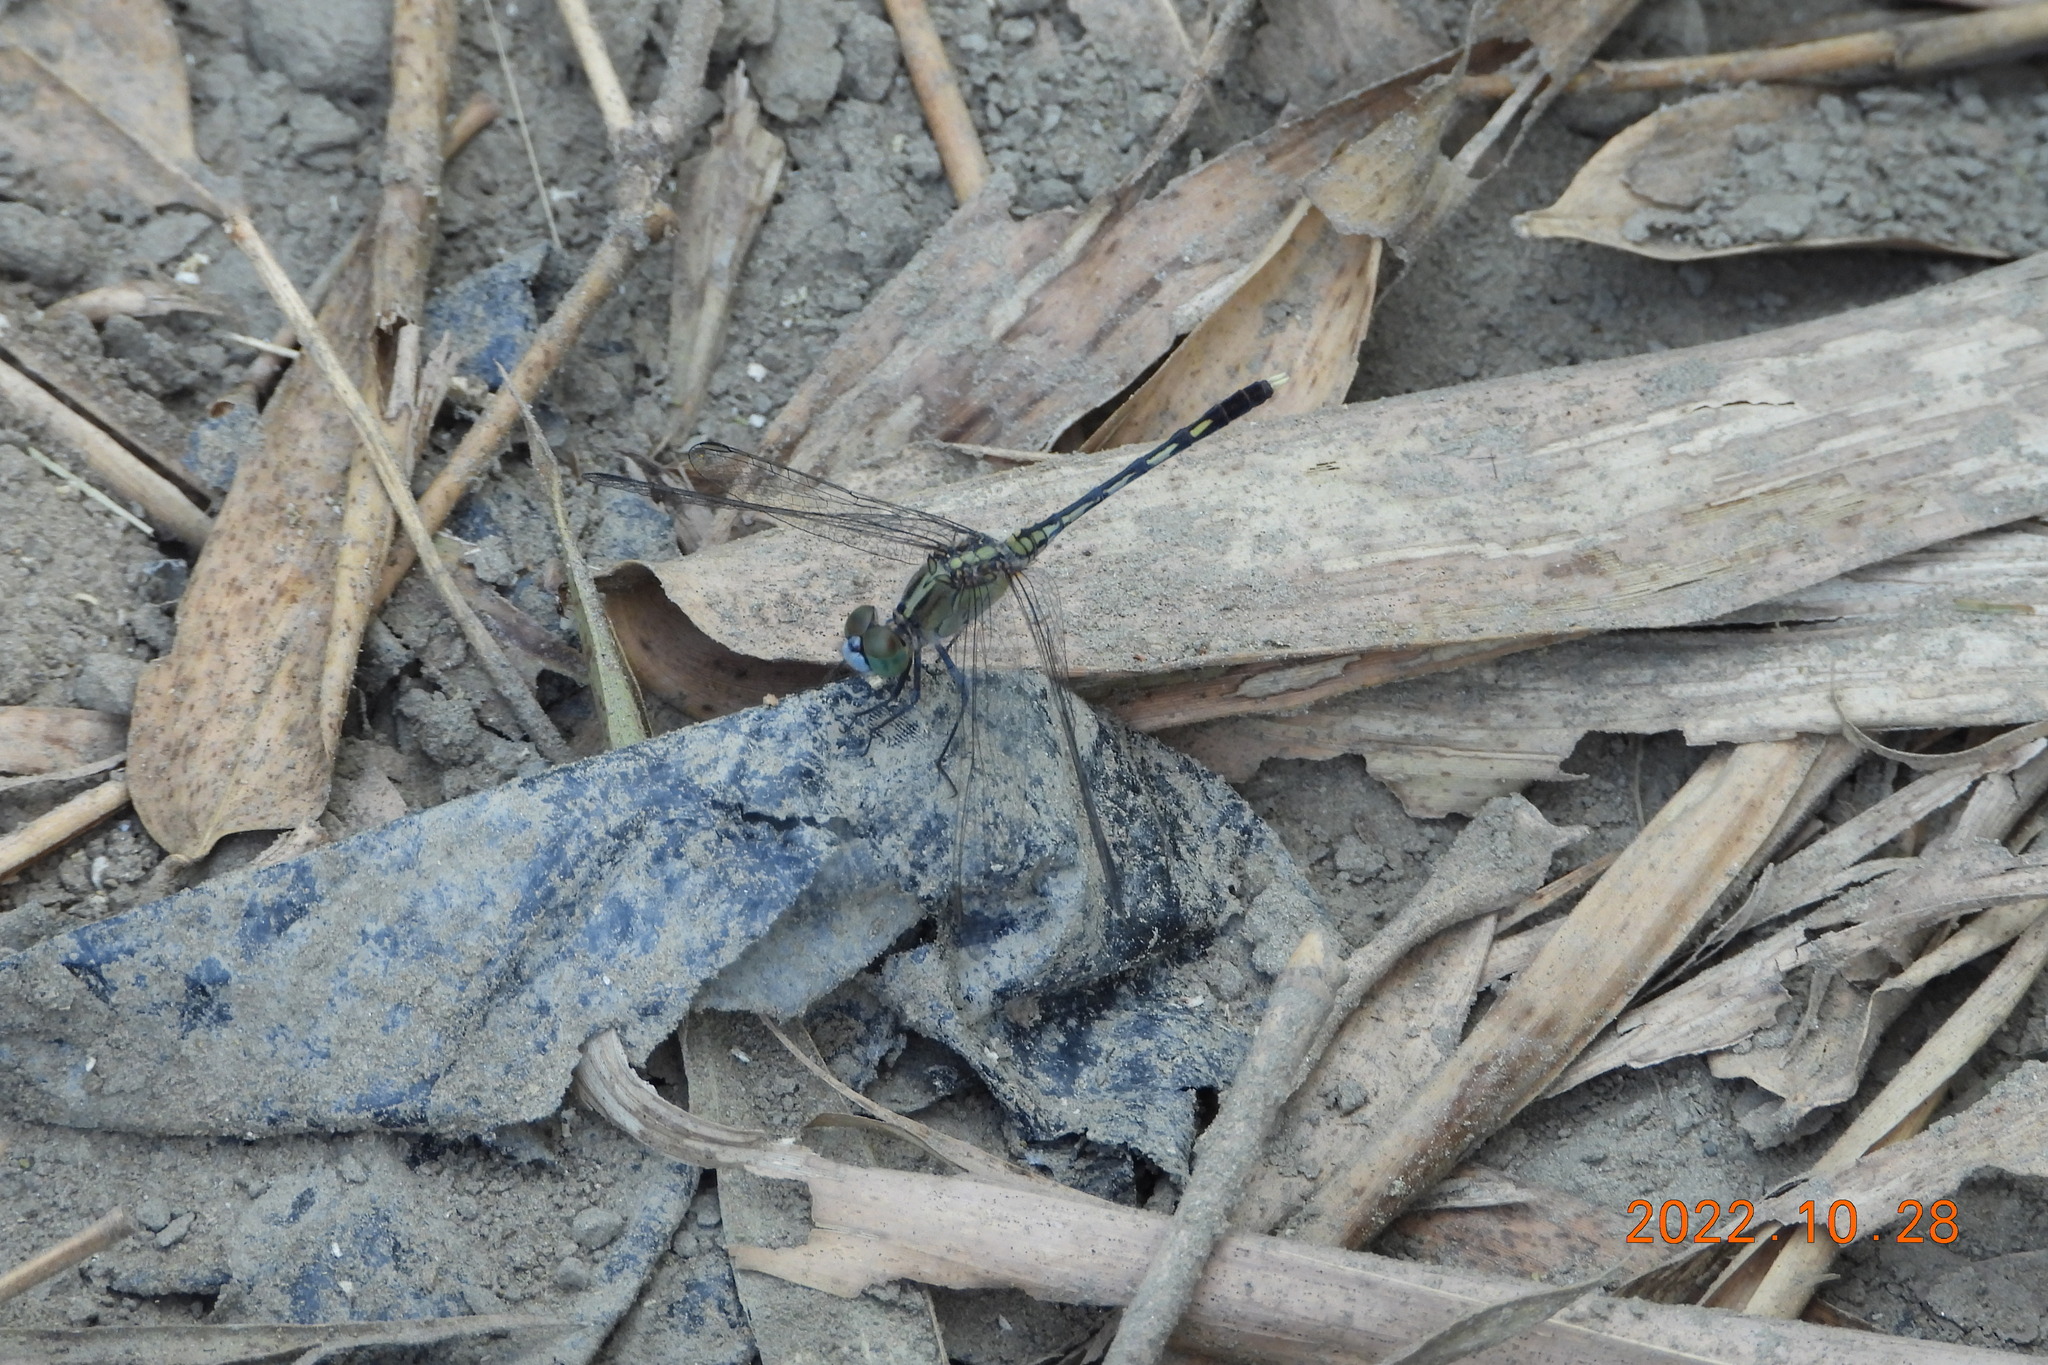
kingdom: Animalia
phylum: Arthropoda
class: Insecta
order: Odonata
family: Libellulidae
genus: Diplacodes
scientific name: Diplacodes trivialis
